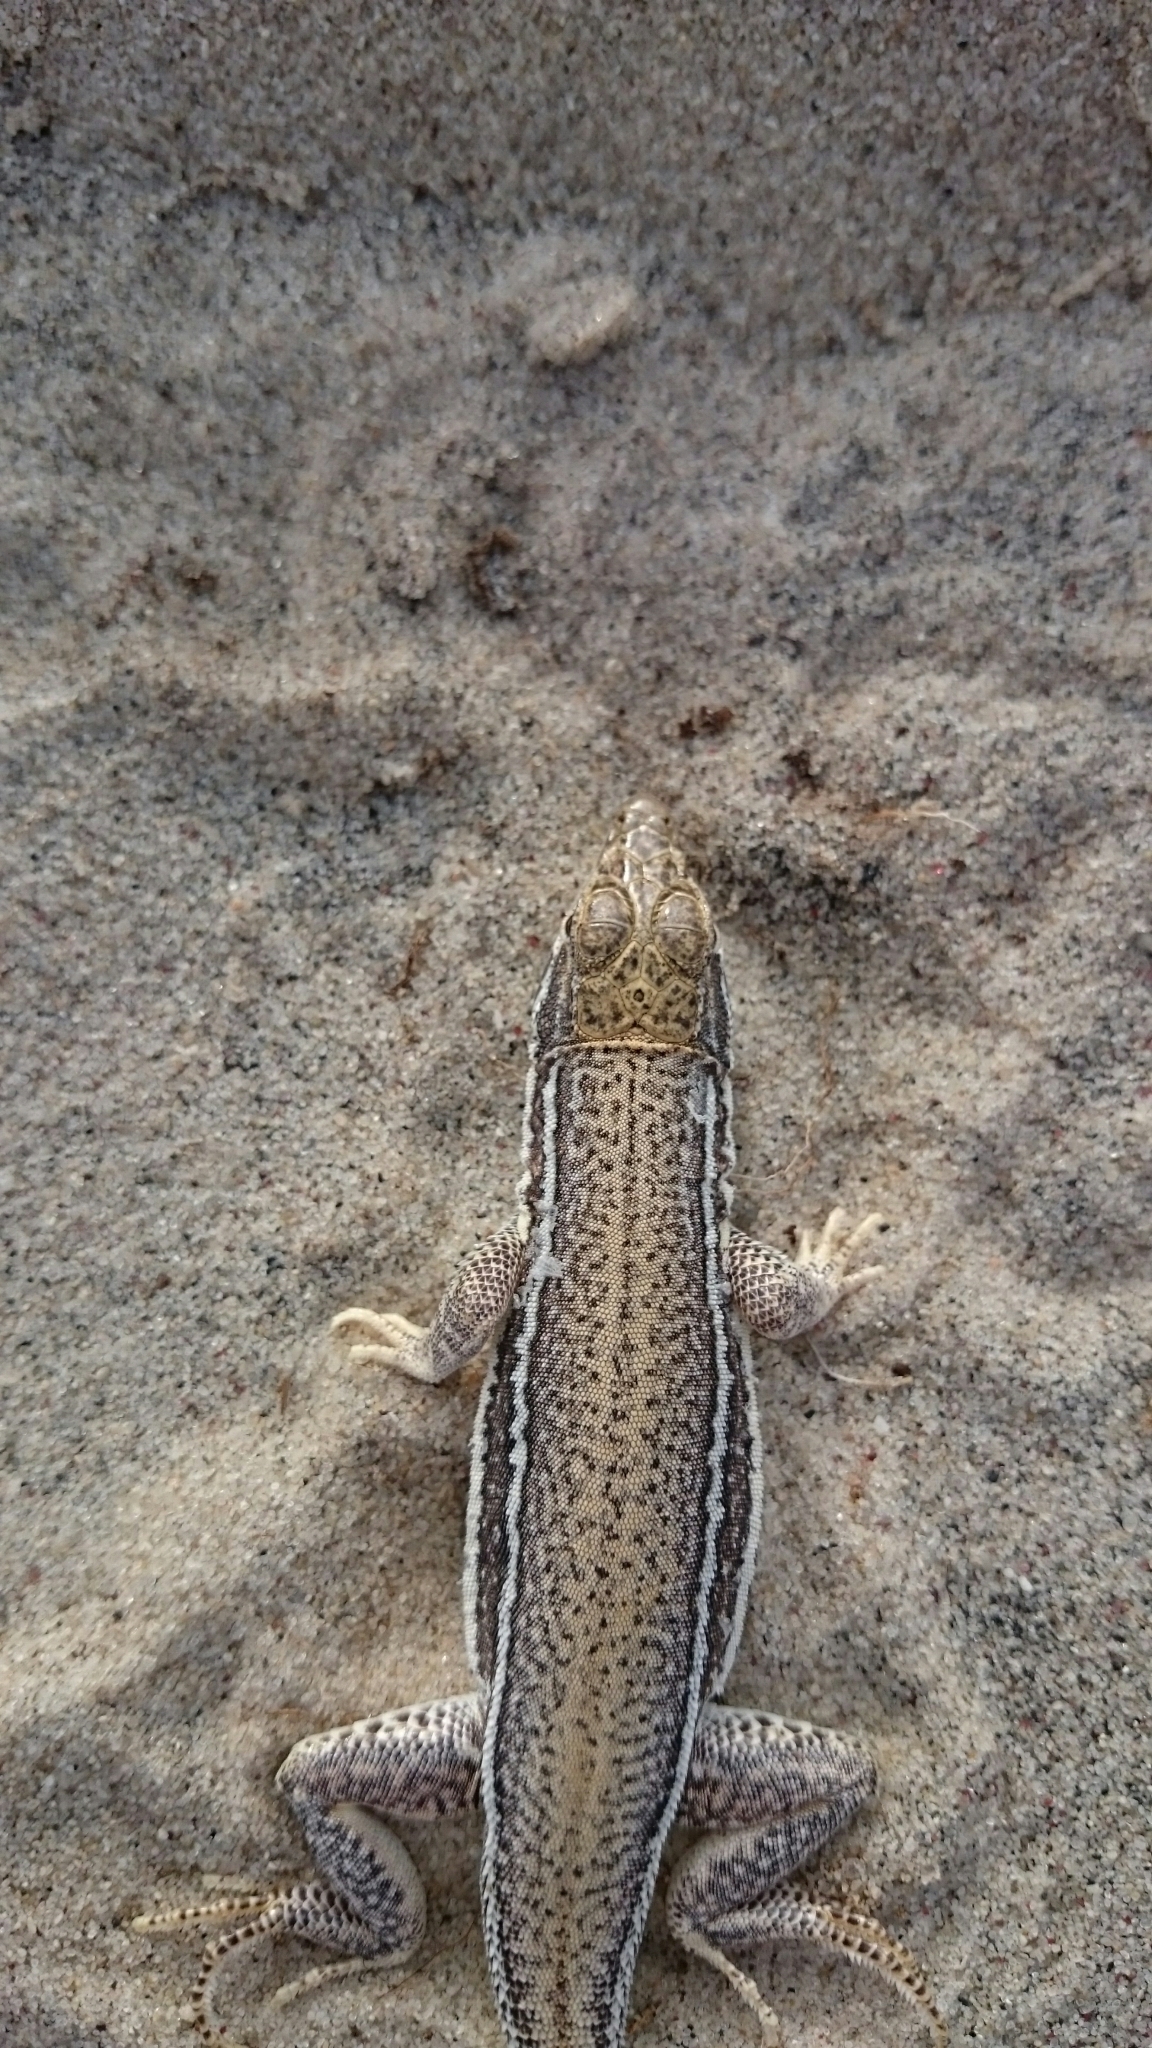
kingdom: Animalia
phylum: Chordata
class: Squamata
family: Lacertidae
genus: Meroles
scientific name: Meroles ctenodactylus
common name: Giant desert lizard
